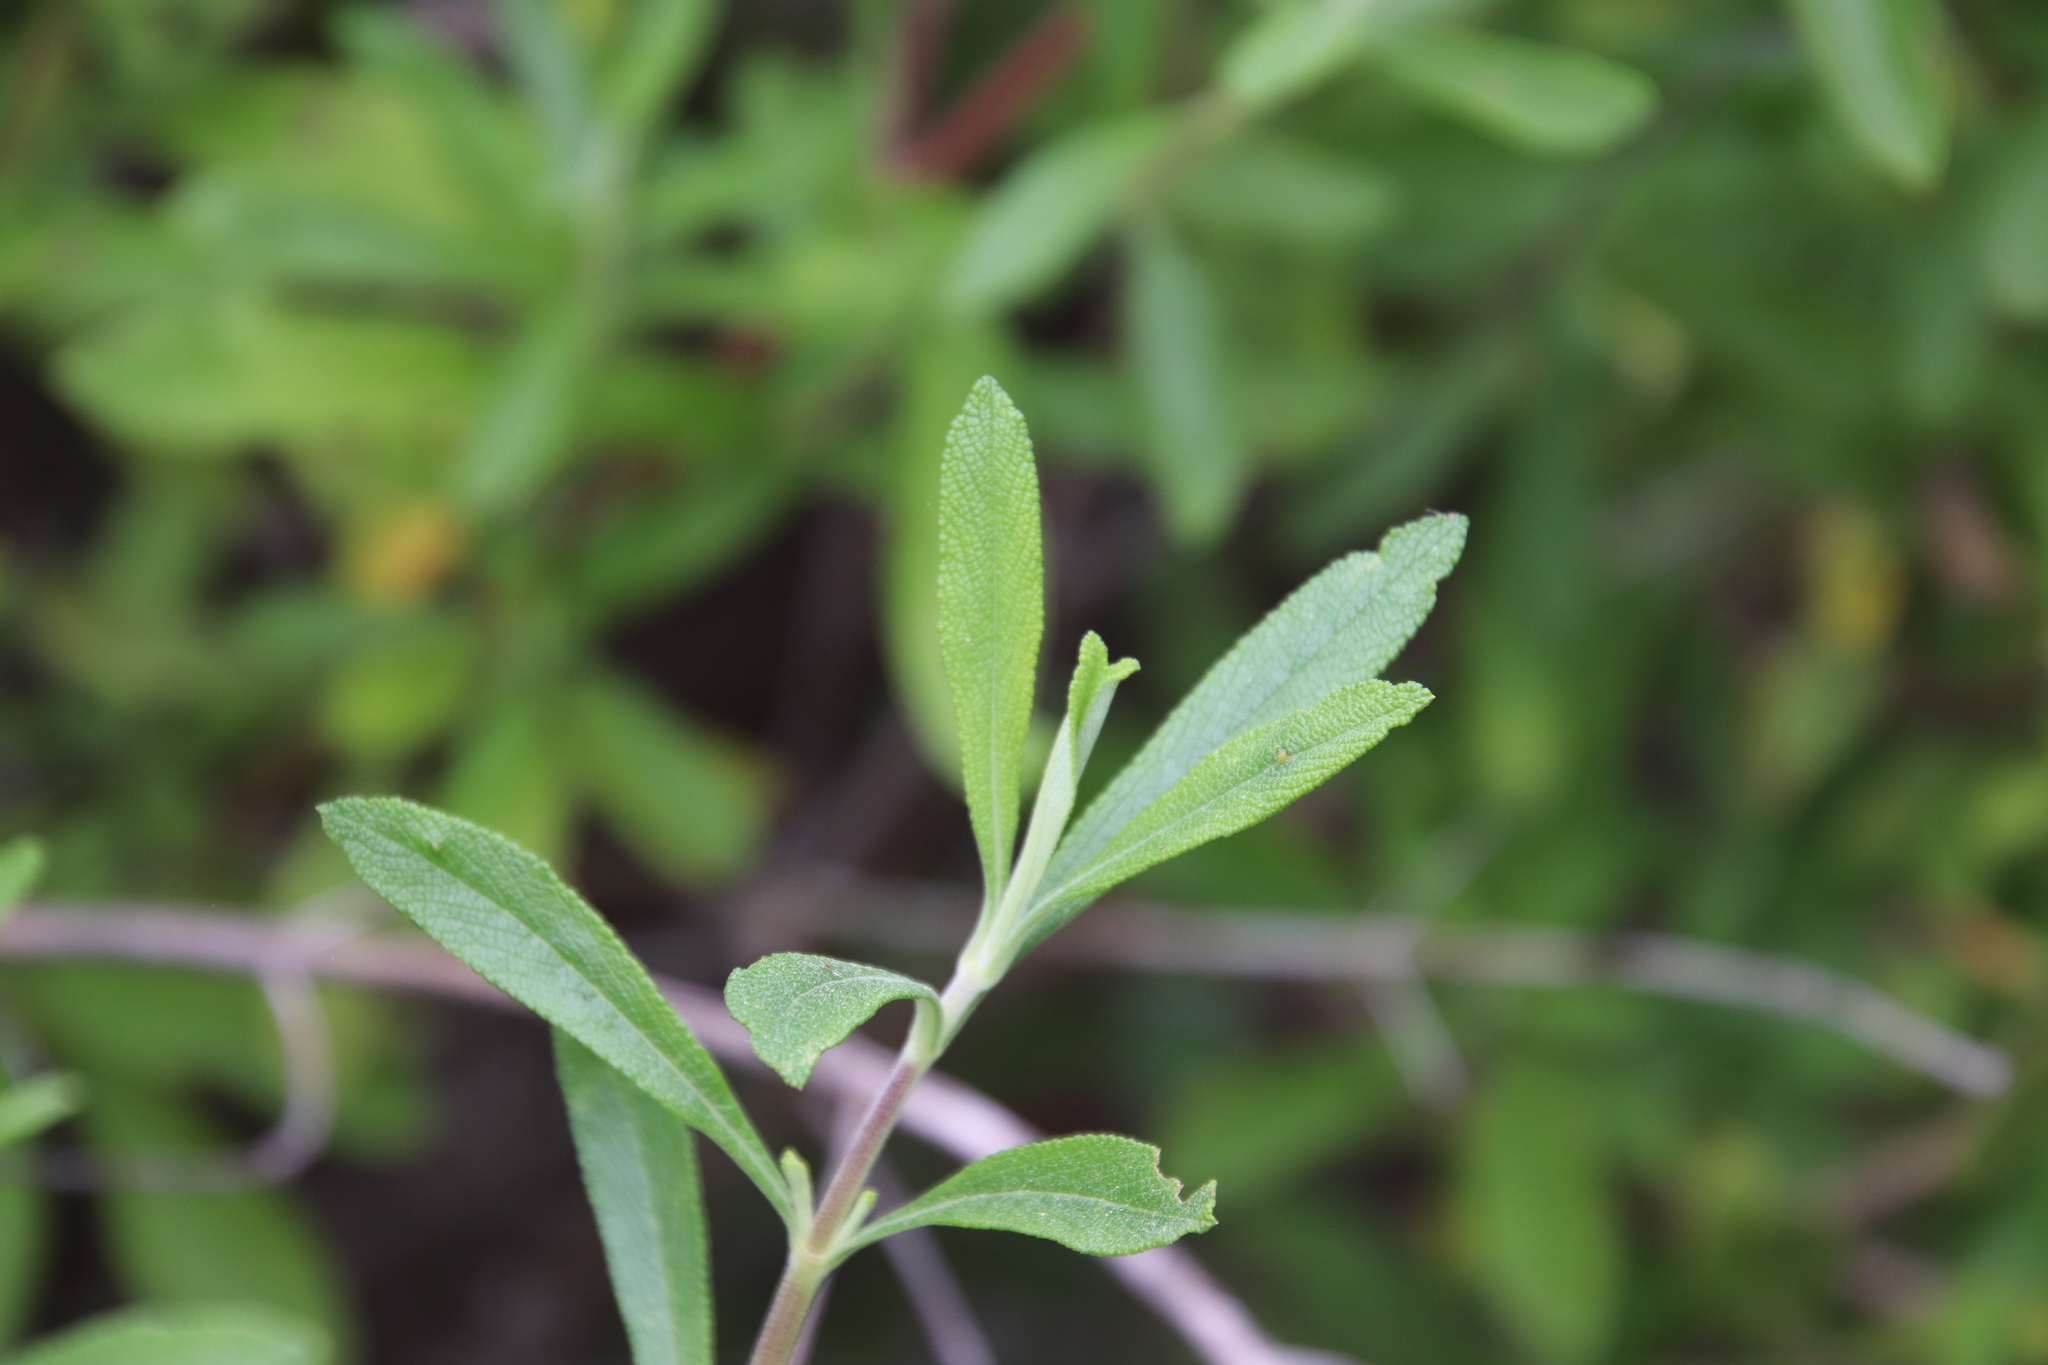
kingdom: Plantae
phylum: Tracheophyta
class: Magnoliopsida
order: Lamiales
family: Lamiaceae
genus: Salvia
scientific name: Salvia mellifera
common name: Black sage
